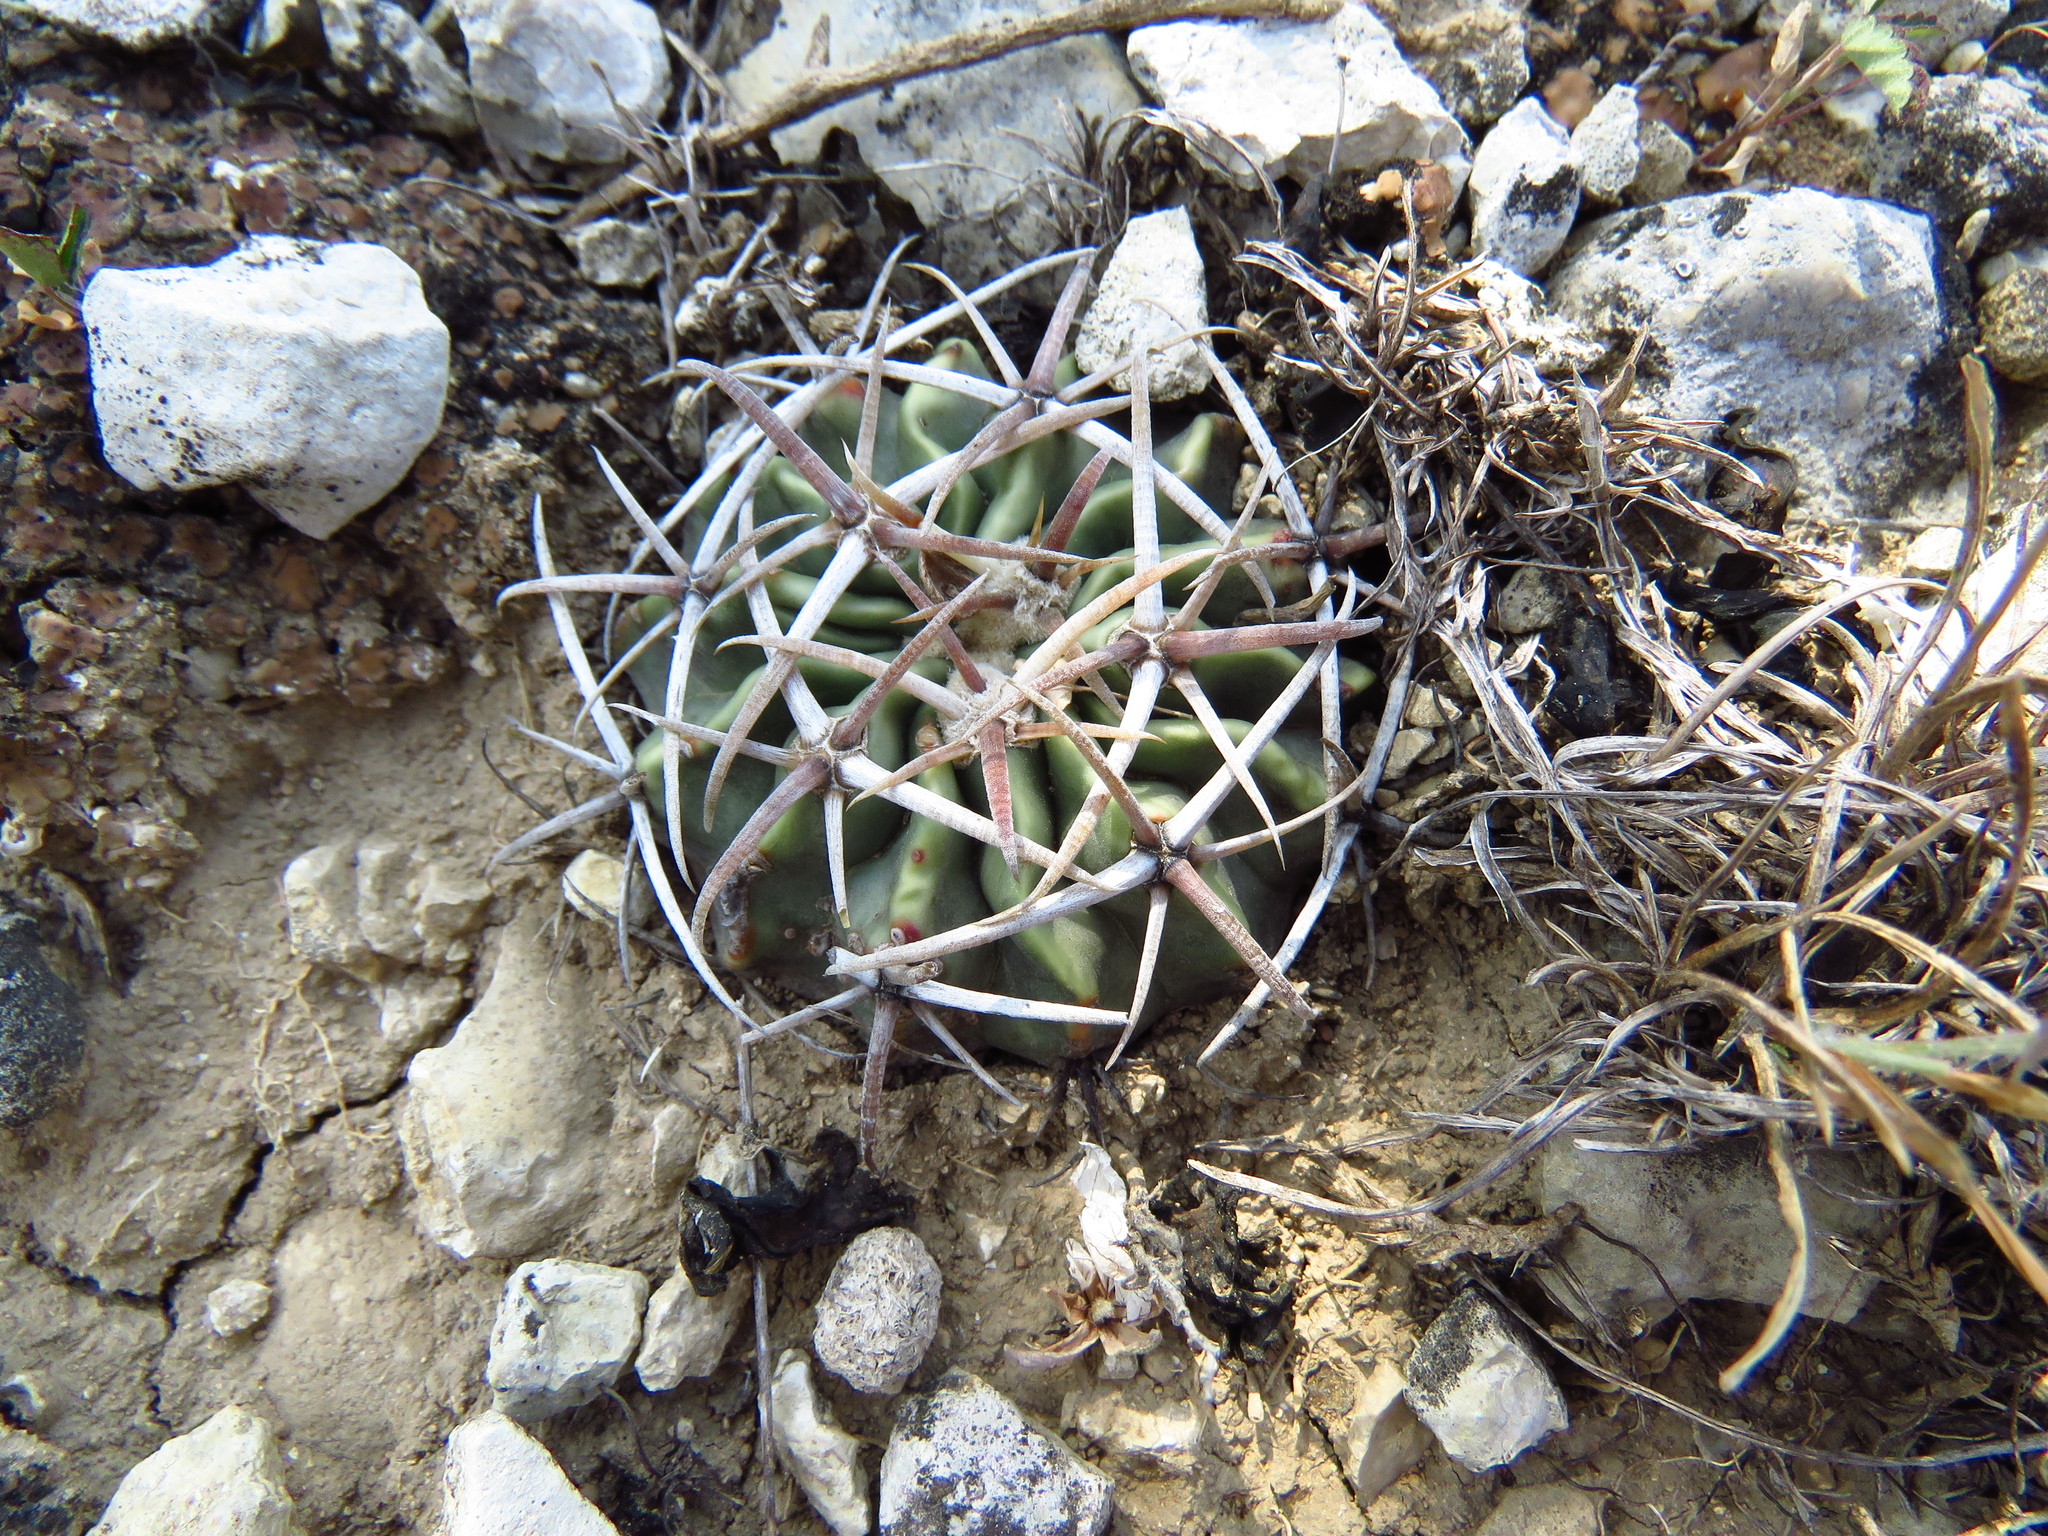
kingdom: Plantae
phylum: Tracheophyta
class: Magnoliopsida
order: Caryophyllales
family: Cactaceae
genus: Echinocactus
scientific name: Echinocactus texensis
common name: Devil's pincushion
